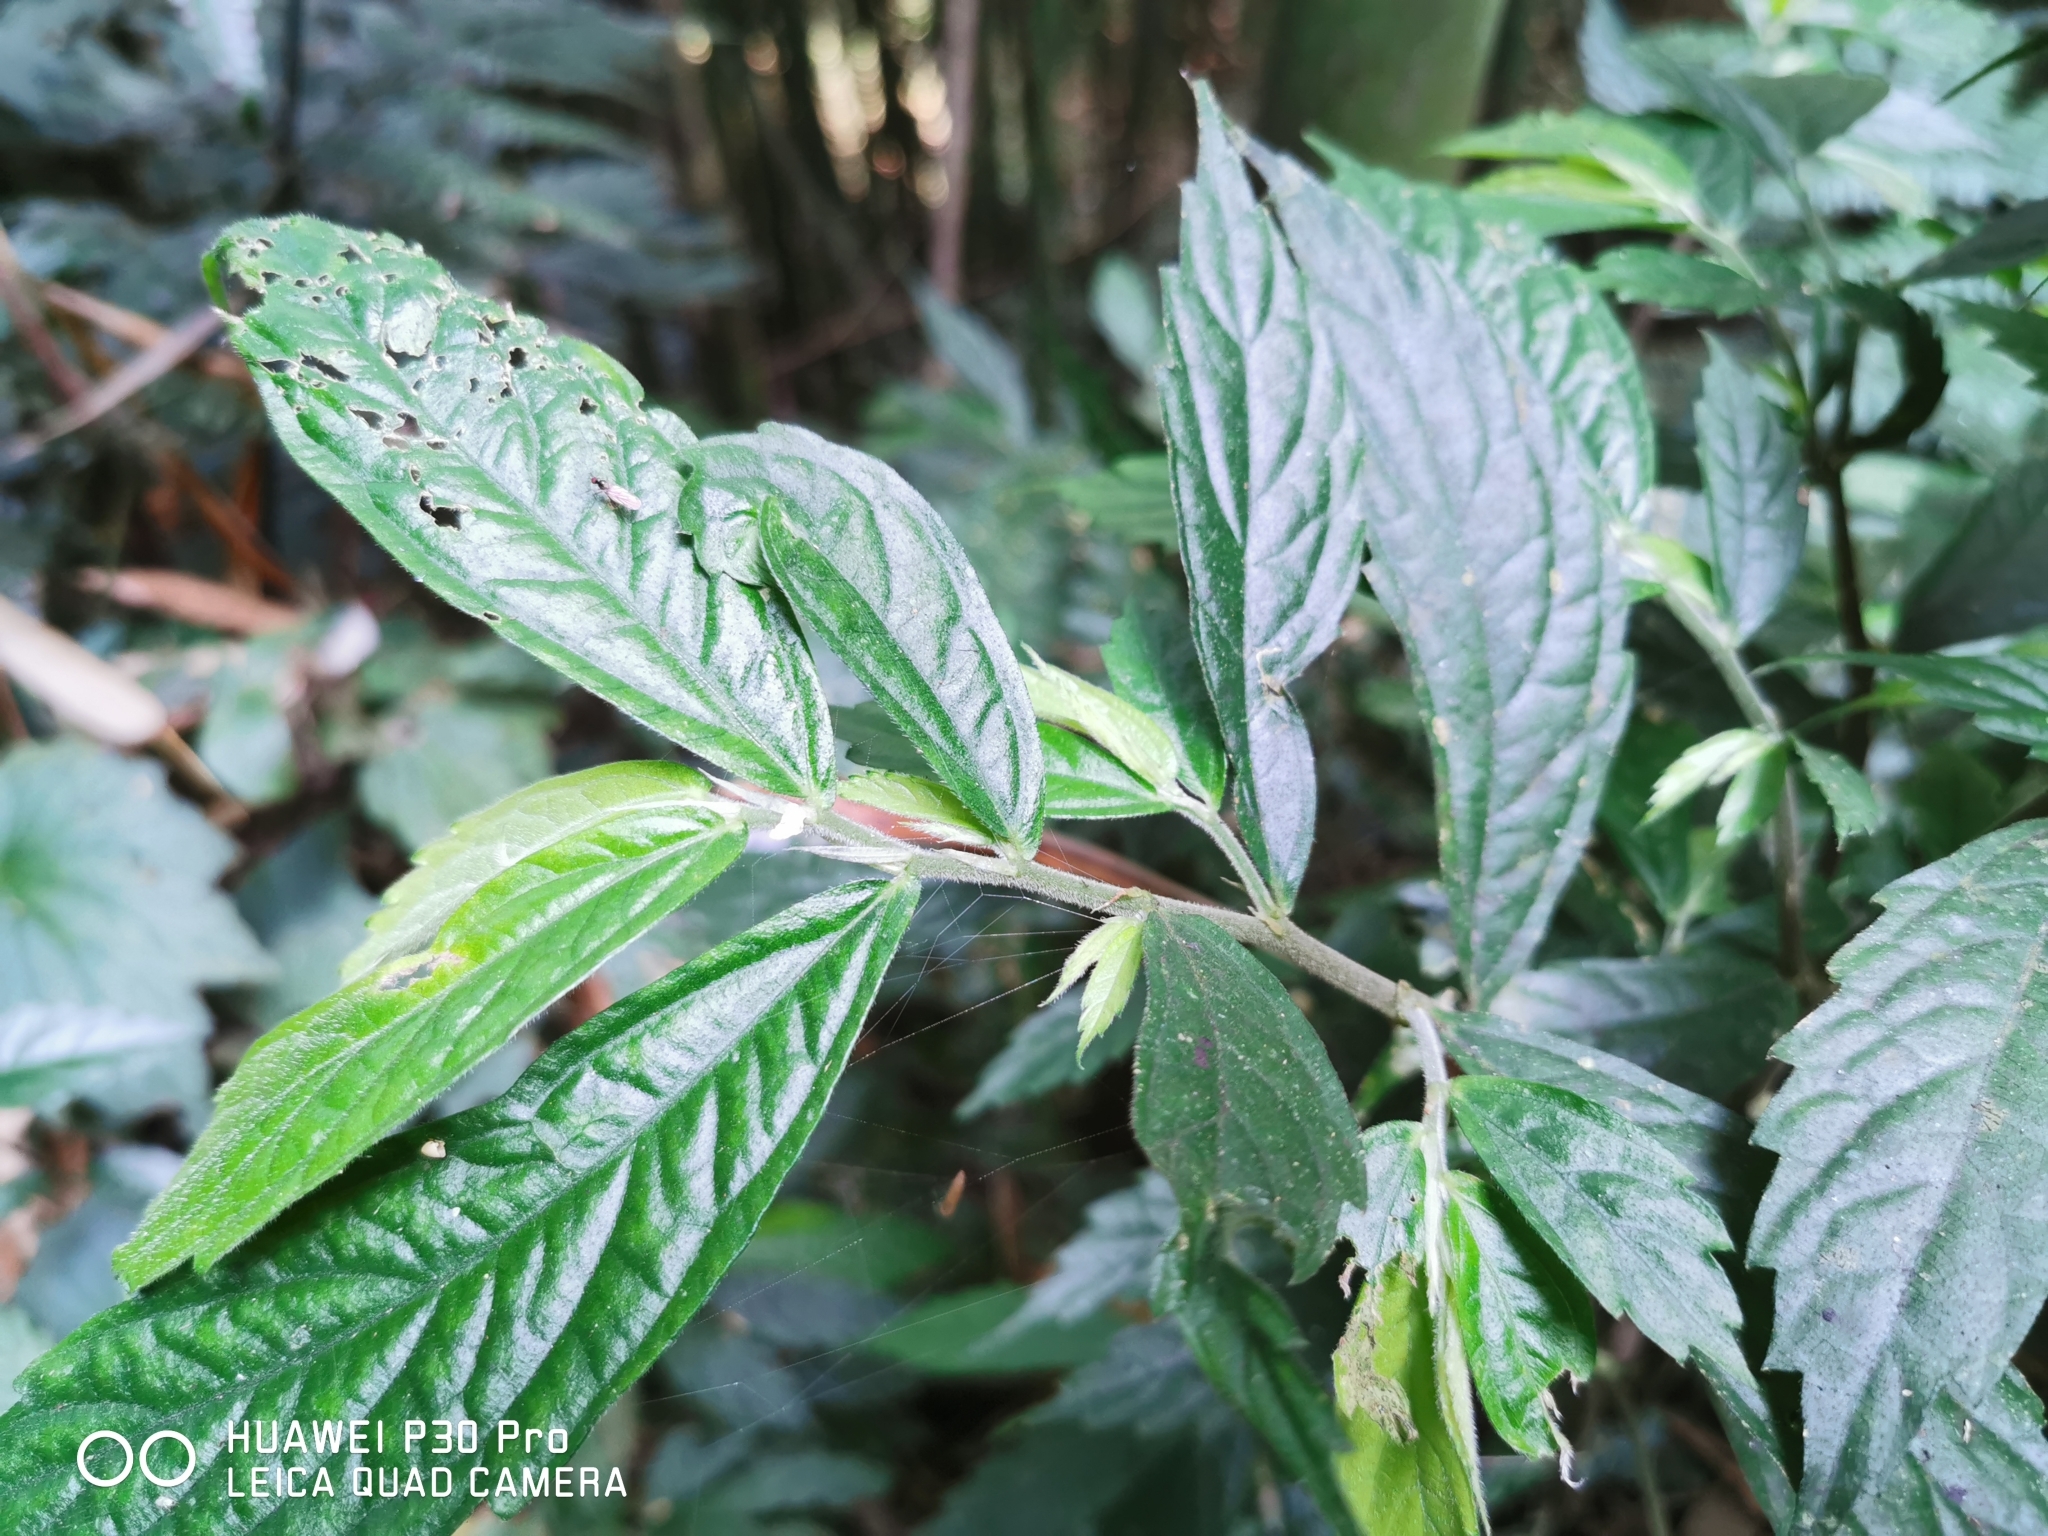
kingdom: Plantae
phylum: Tracheophyta
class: Magnoliopsida
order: Rosales
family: Urticaceae
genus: Elatostema
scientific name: Elatostema lineolatum
